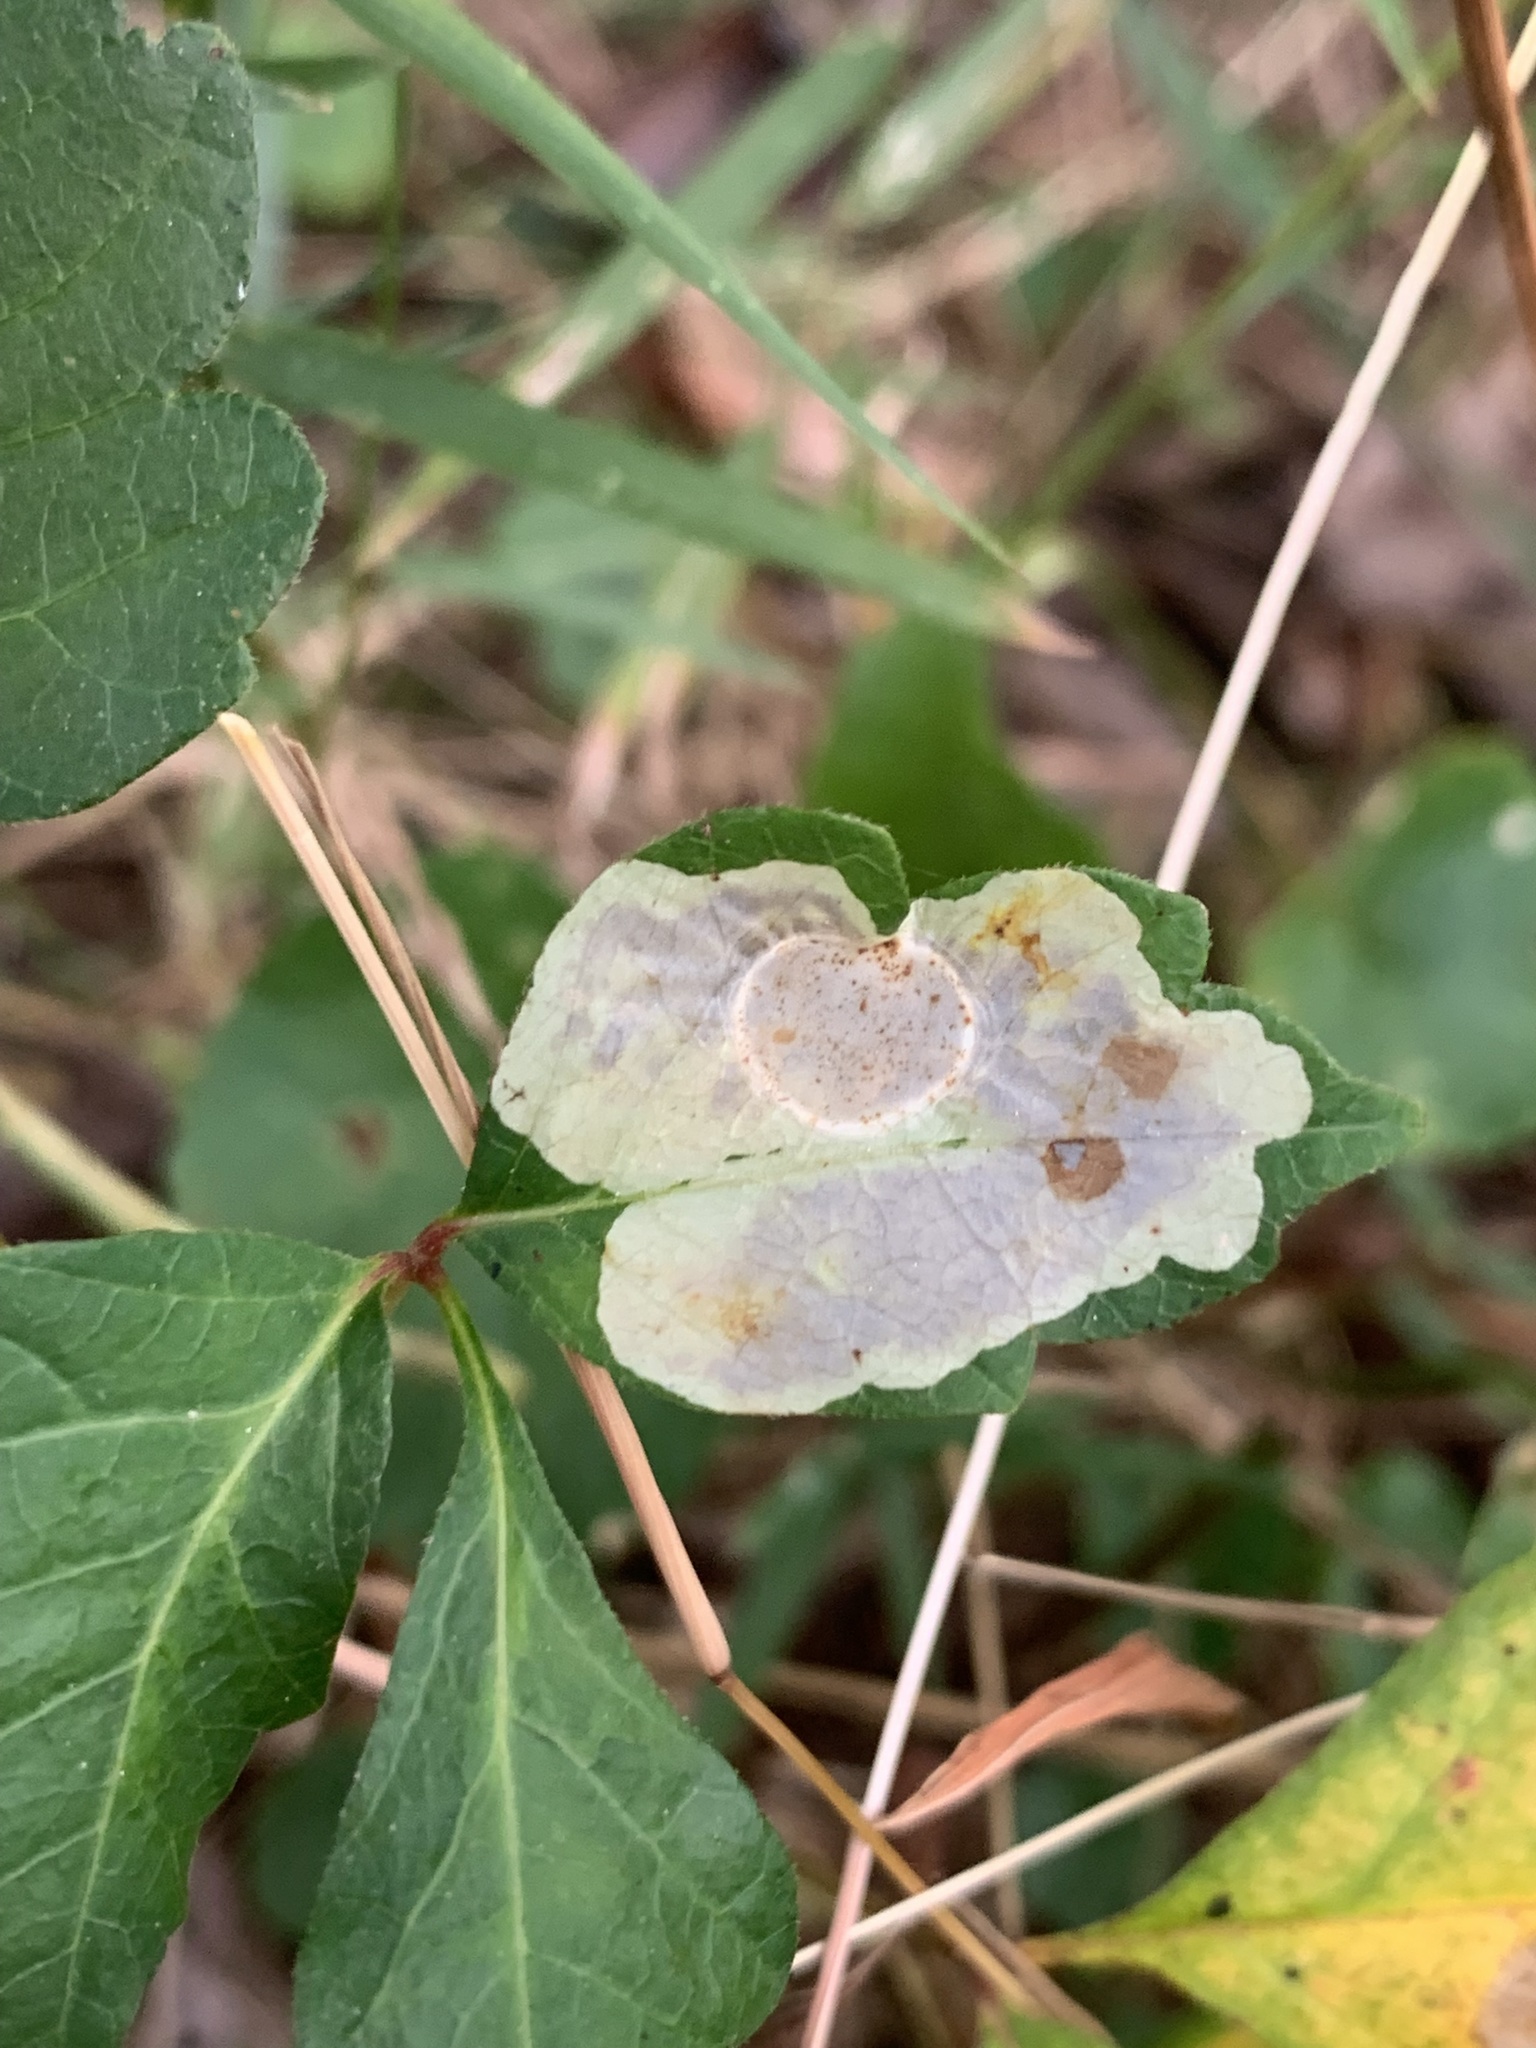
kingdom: Animalia
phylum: Arthropoda
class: Insecta
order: Lepidoptera
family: Gracillariidae
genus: Cameraria
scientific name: Cameraria guttifinitella
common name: Poison ivy leaf-miner moth
